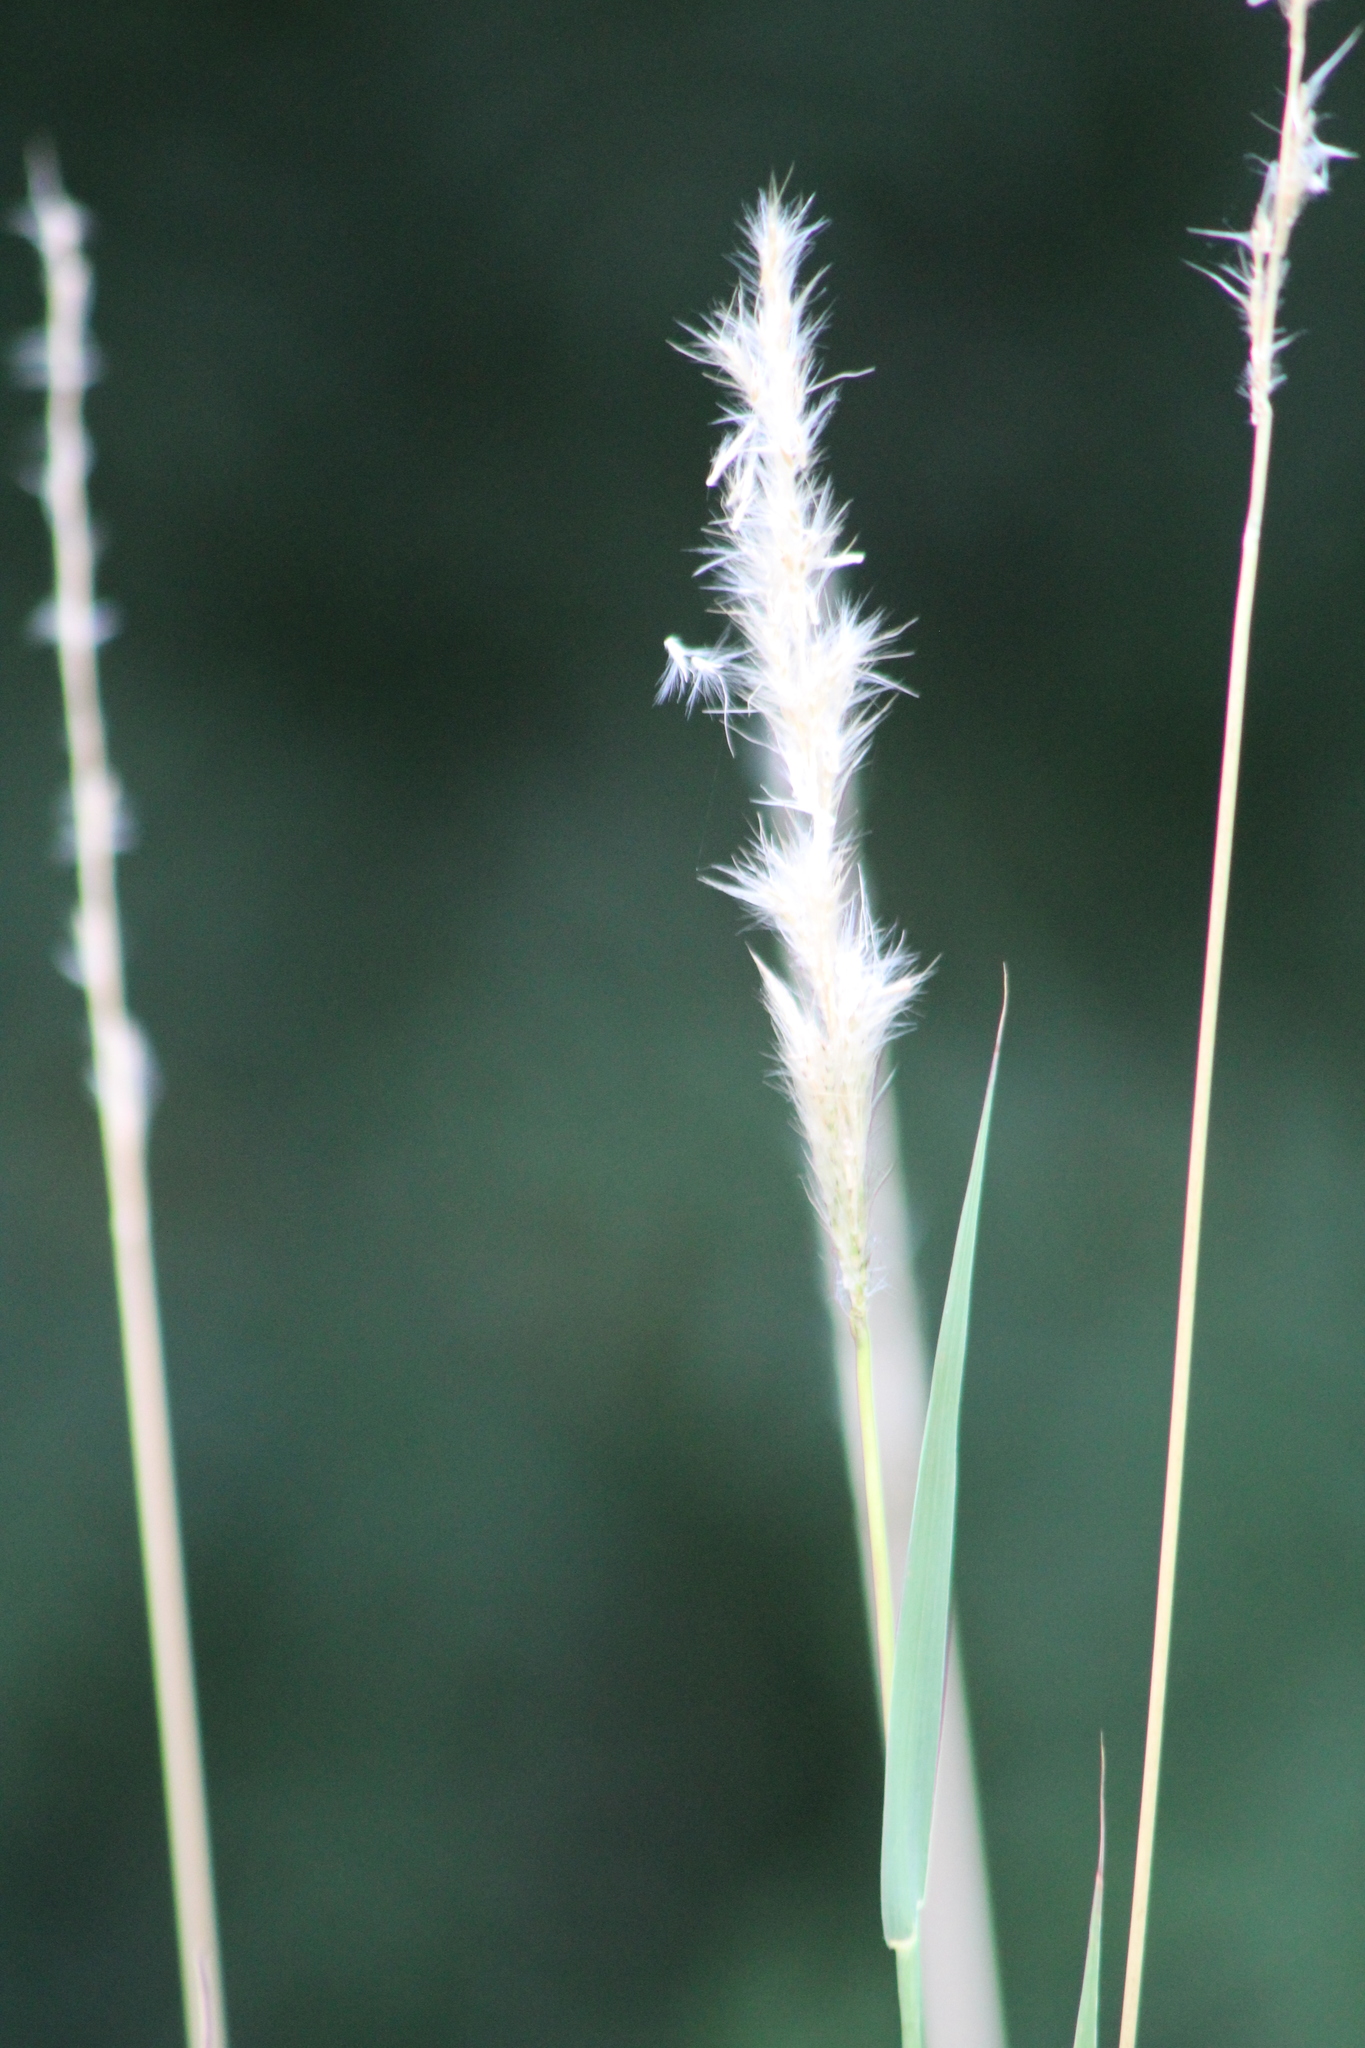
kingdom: Plantae
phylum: Tracheophyta
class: Liliopsida
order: Poales
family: Poaceae
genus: Bothriochloa
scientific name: Bothriochloa torreyana
